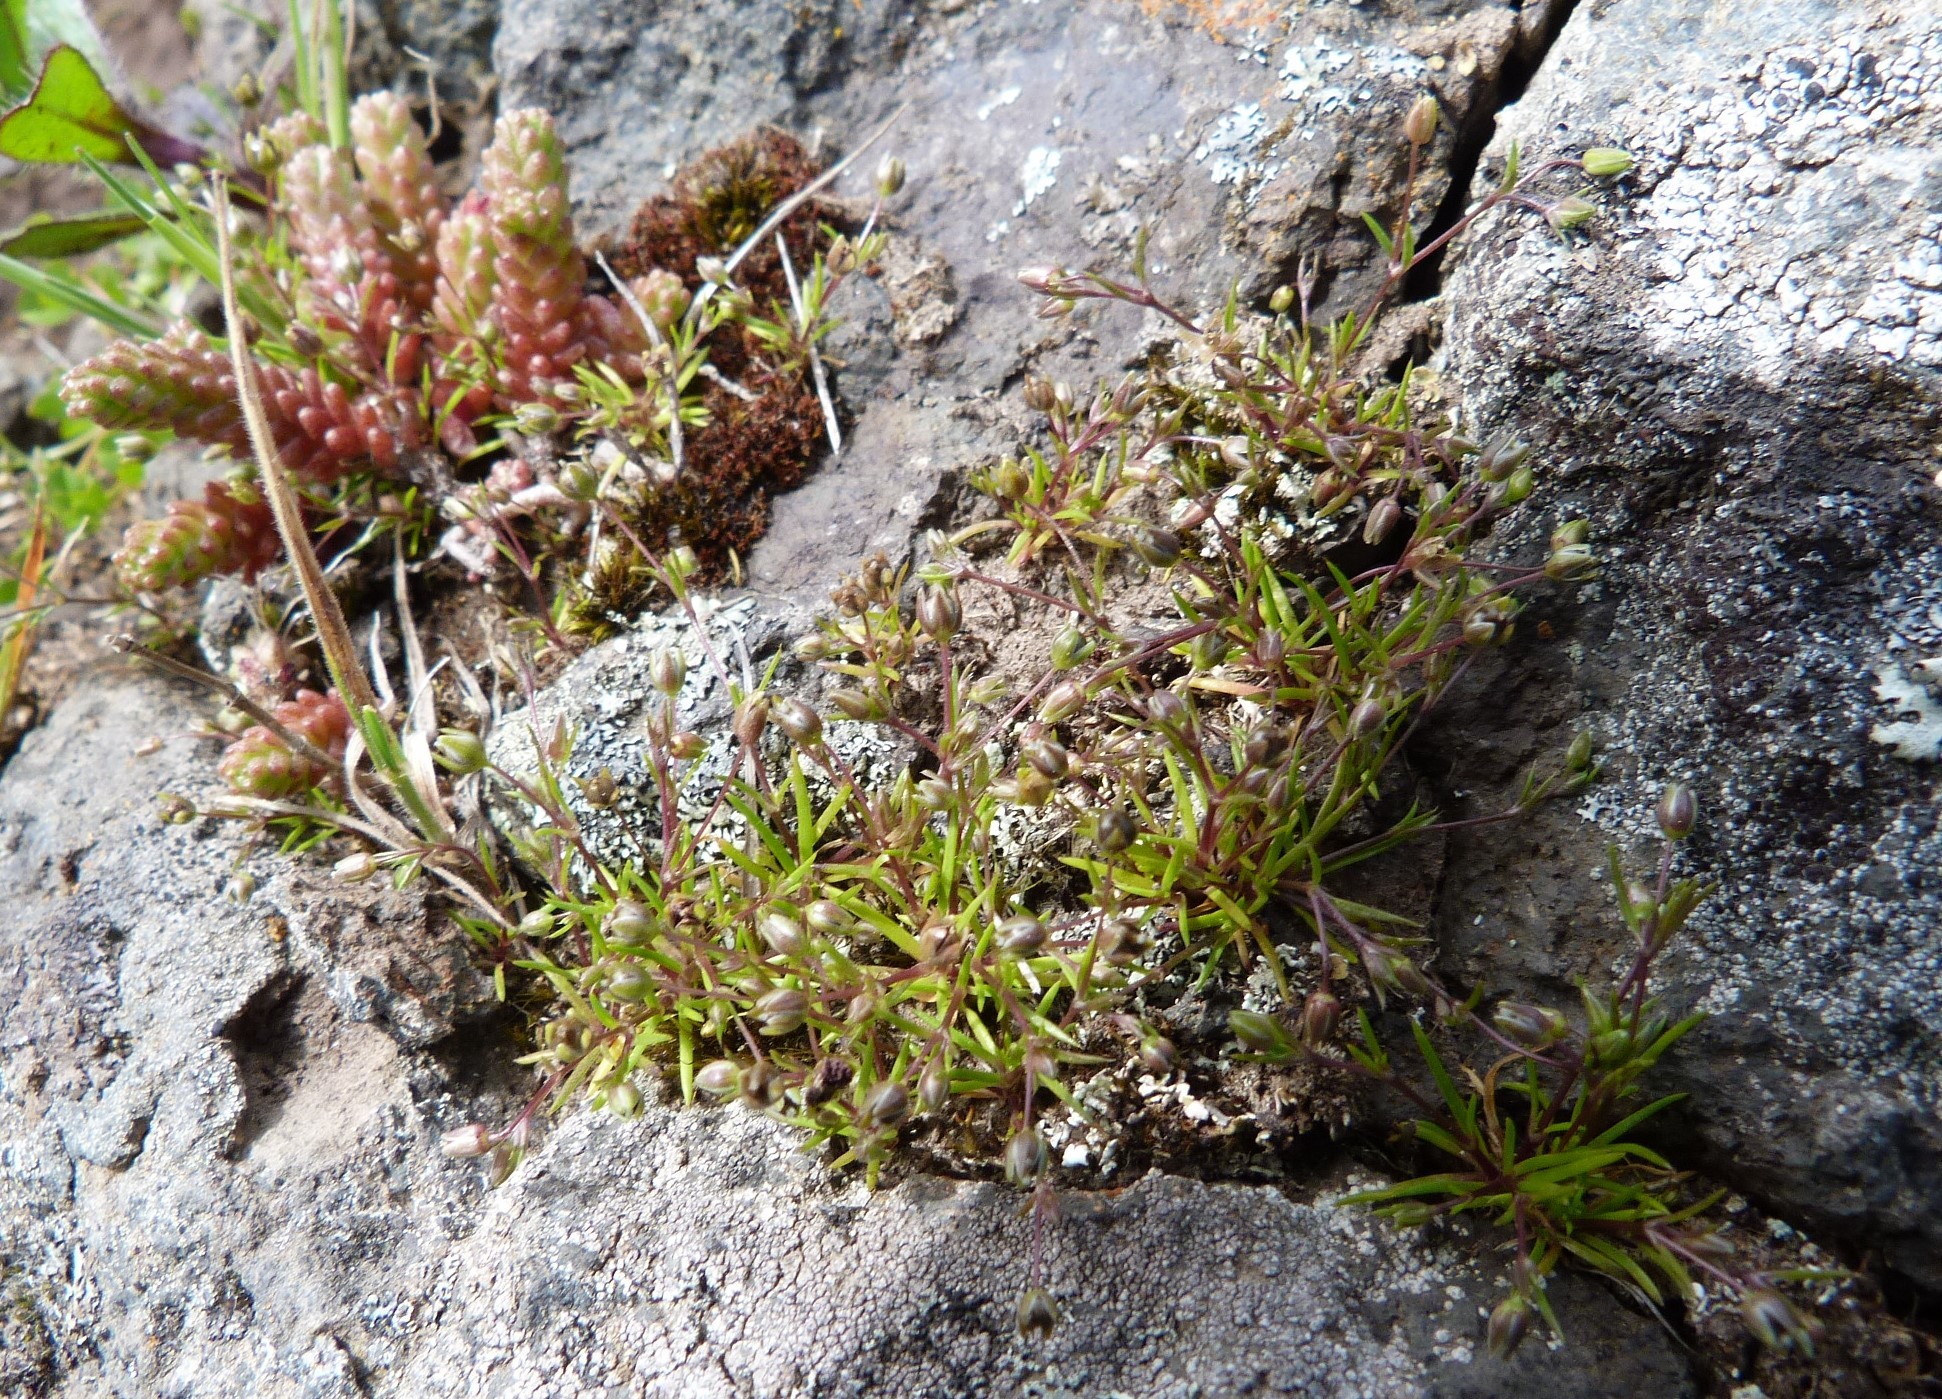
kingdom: Plantae
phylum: Tracheophyta
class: Magnoliopsida
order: Caryophyllales
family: Caryophyllaceae
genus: Sagina
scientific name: Sagina apetala
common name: Annual pearlwort
